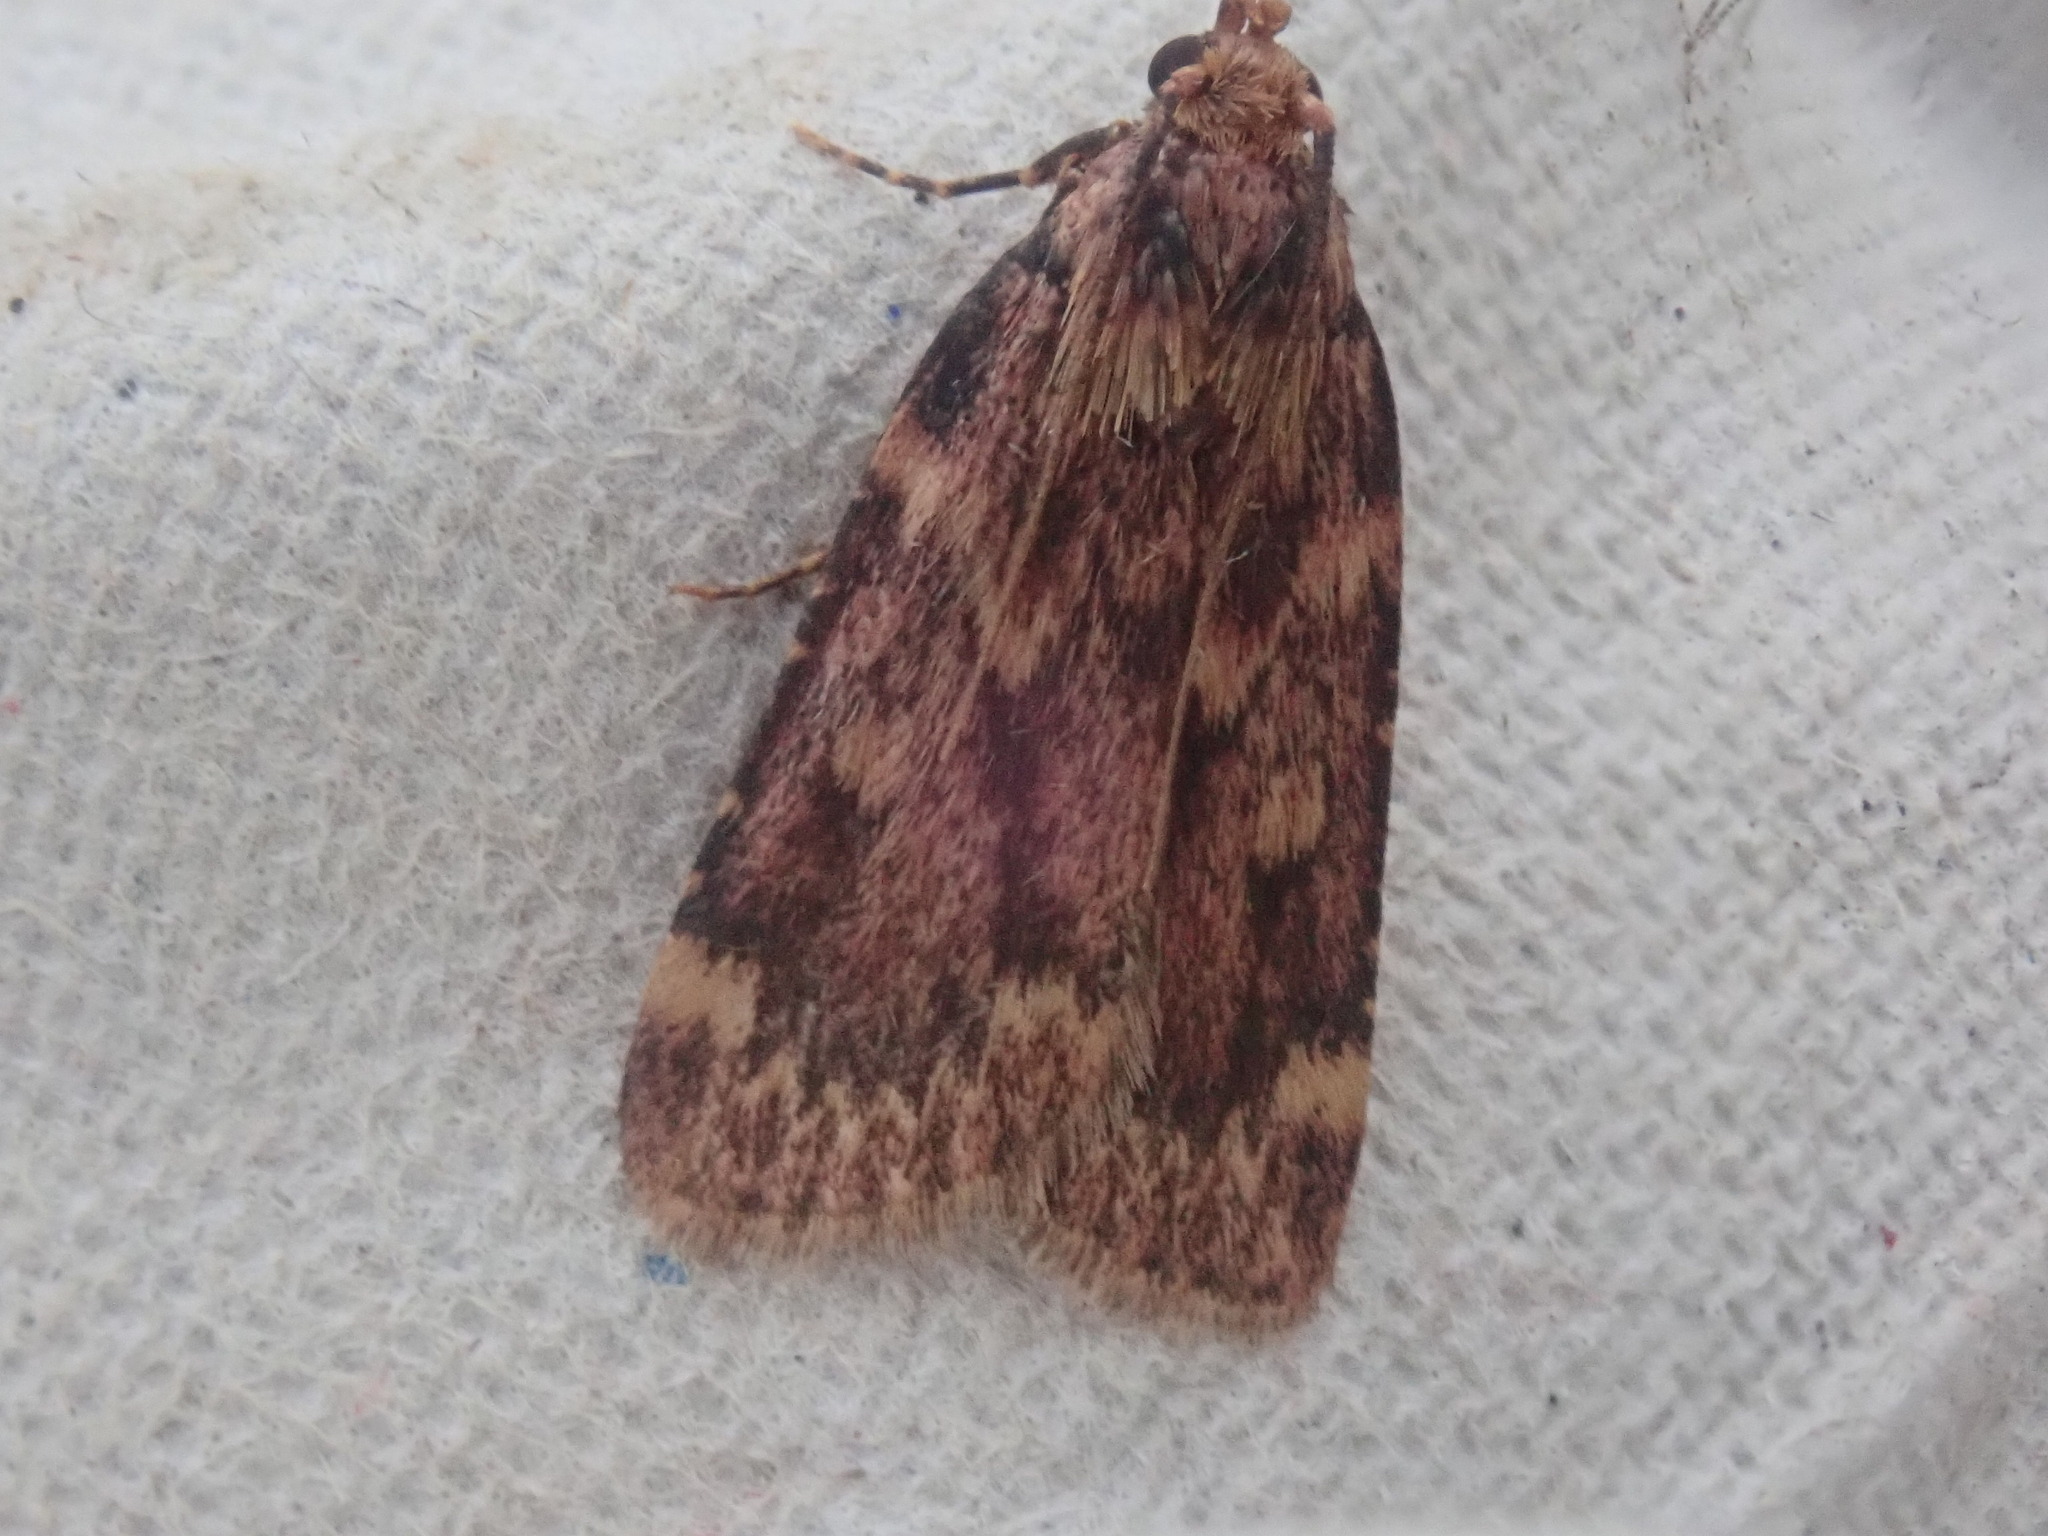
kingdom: Animalia
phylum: Arthropoda
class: Insecta
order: Lepidoptera
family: Pyralidae
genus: Aglossa
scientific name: Aglossa cuprina
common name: Grease moth
